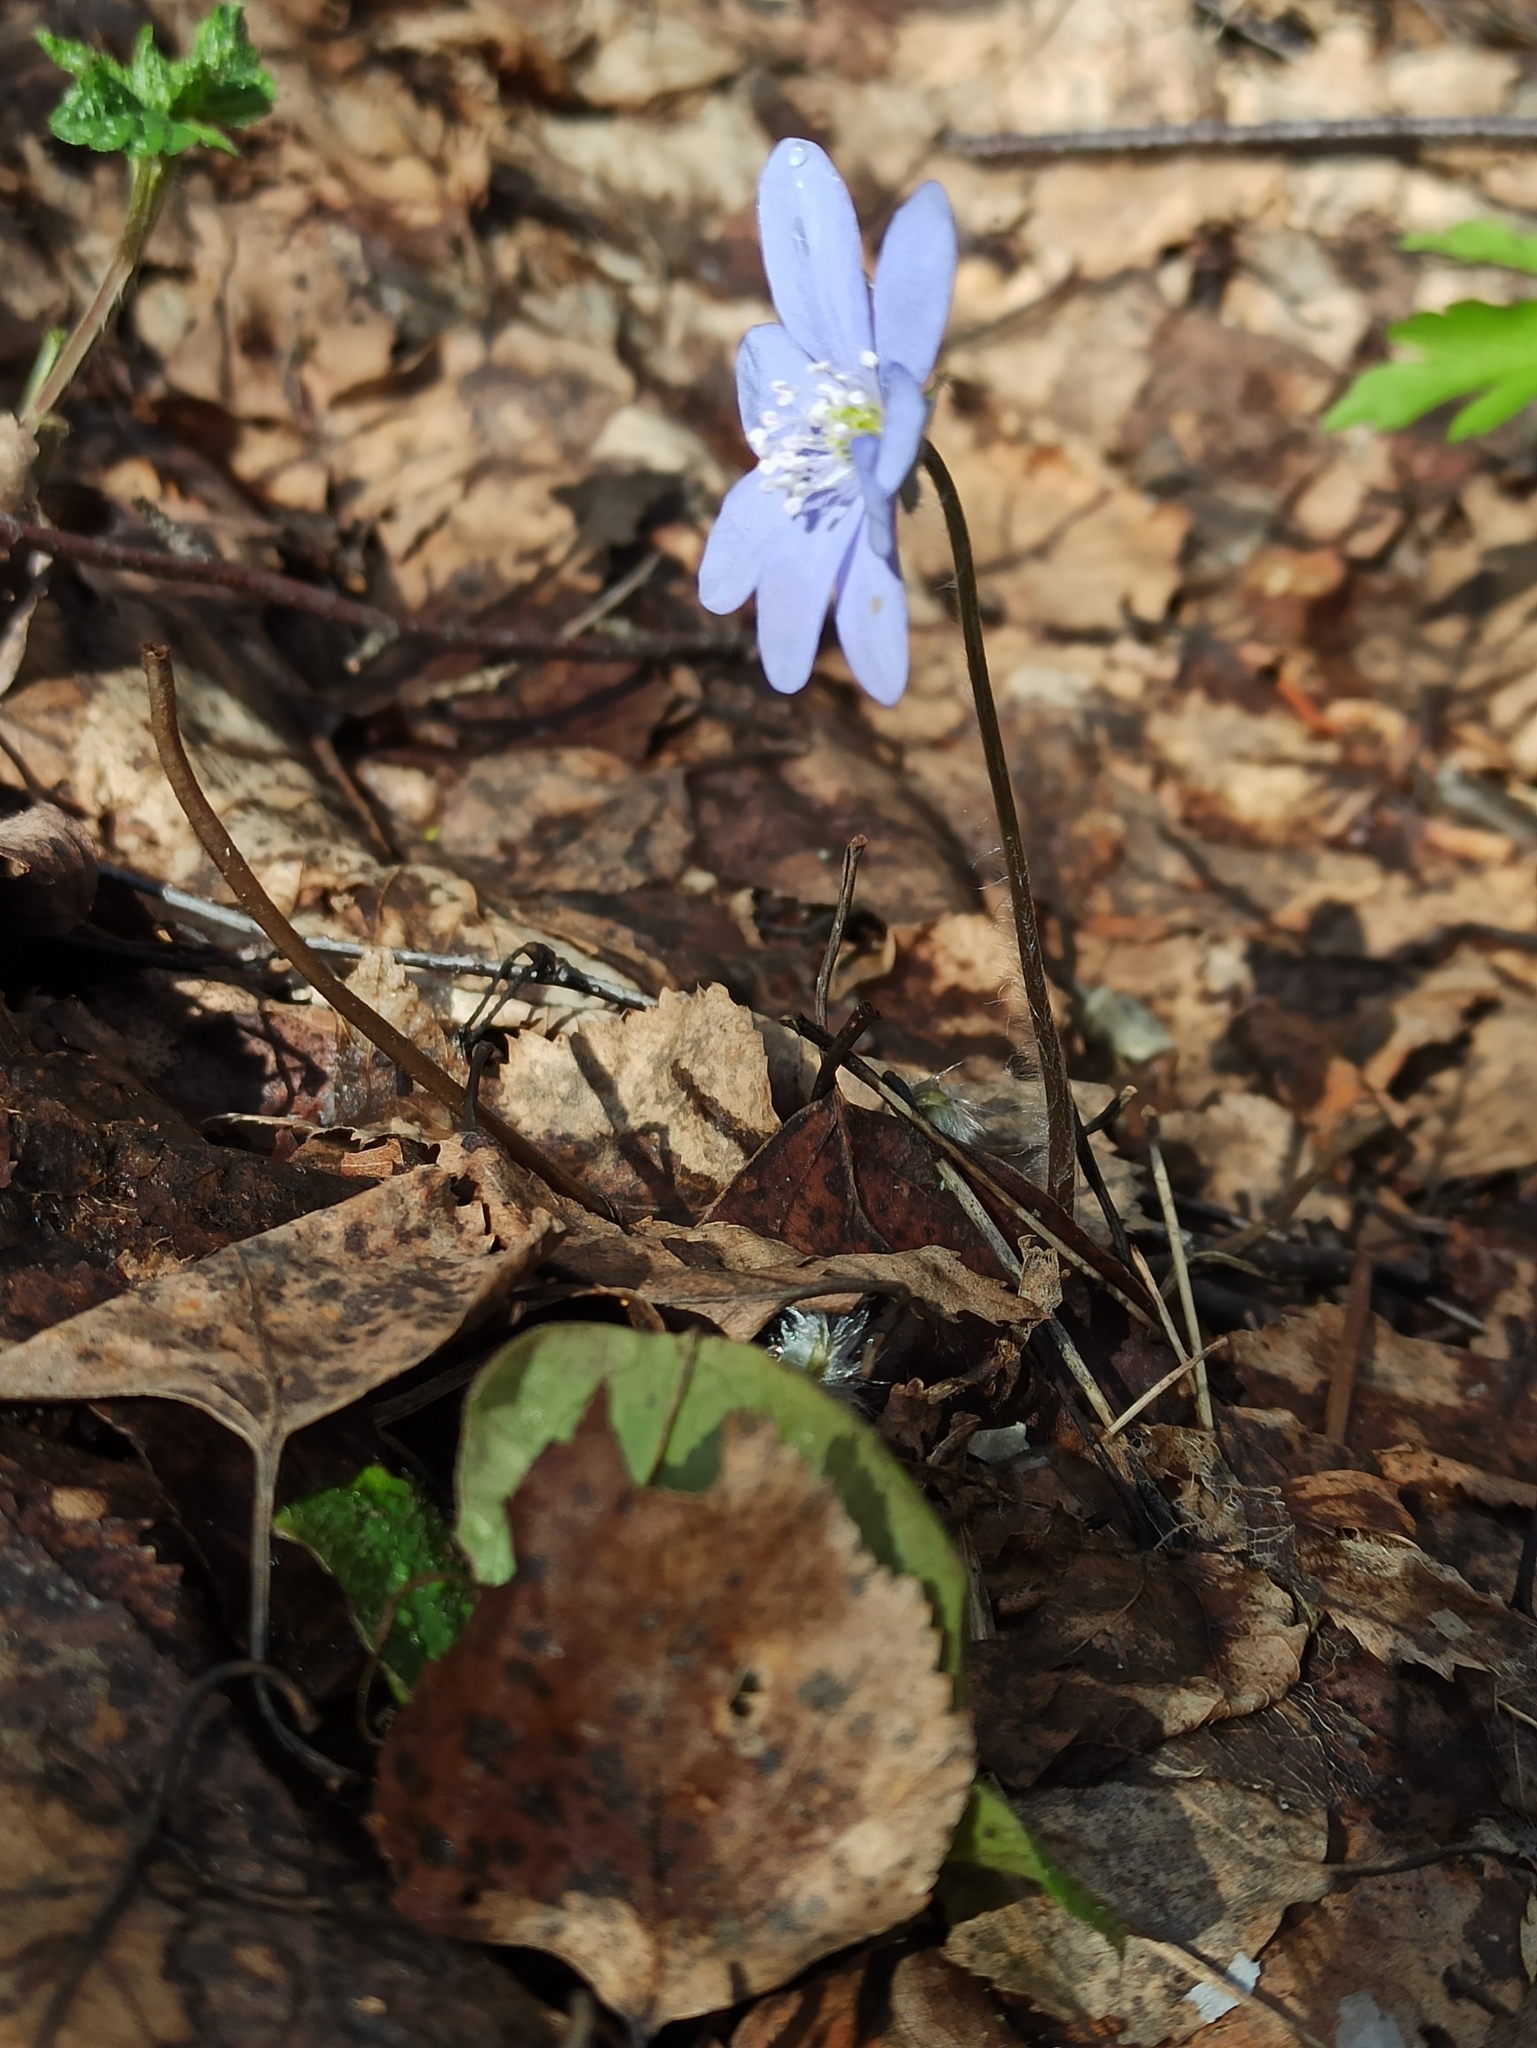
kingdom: Plantae
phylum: Tracheophyta
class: Magnoliopsida
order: Ranunculales
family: Ranunculaceae
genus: Hepatica
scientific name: Hepatica nobilis
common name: Liverleaf
